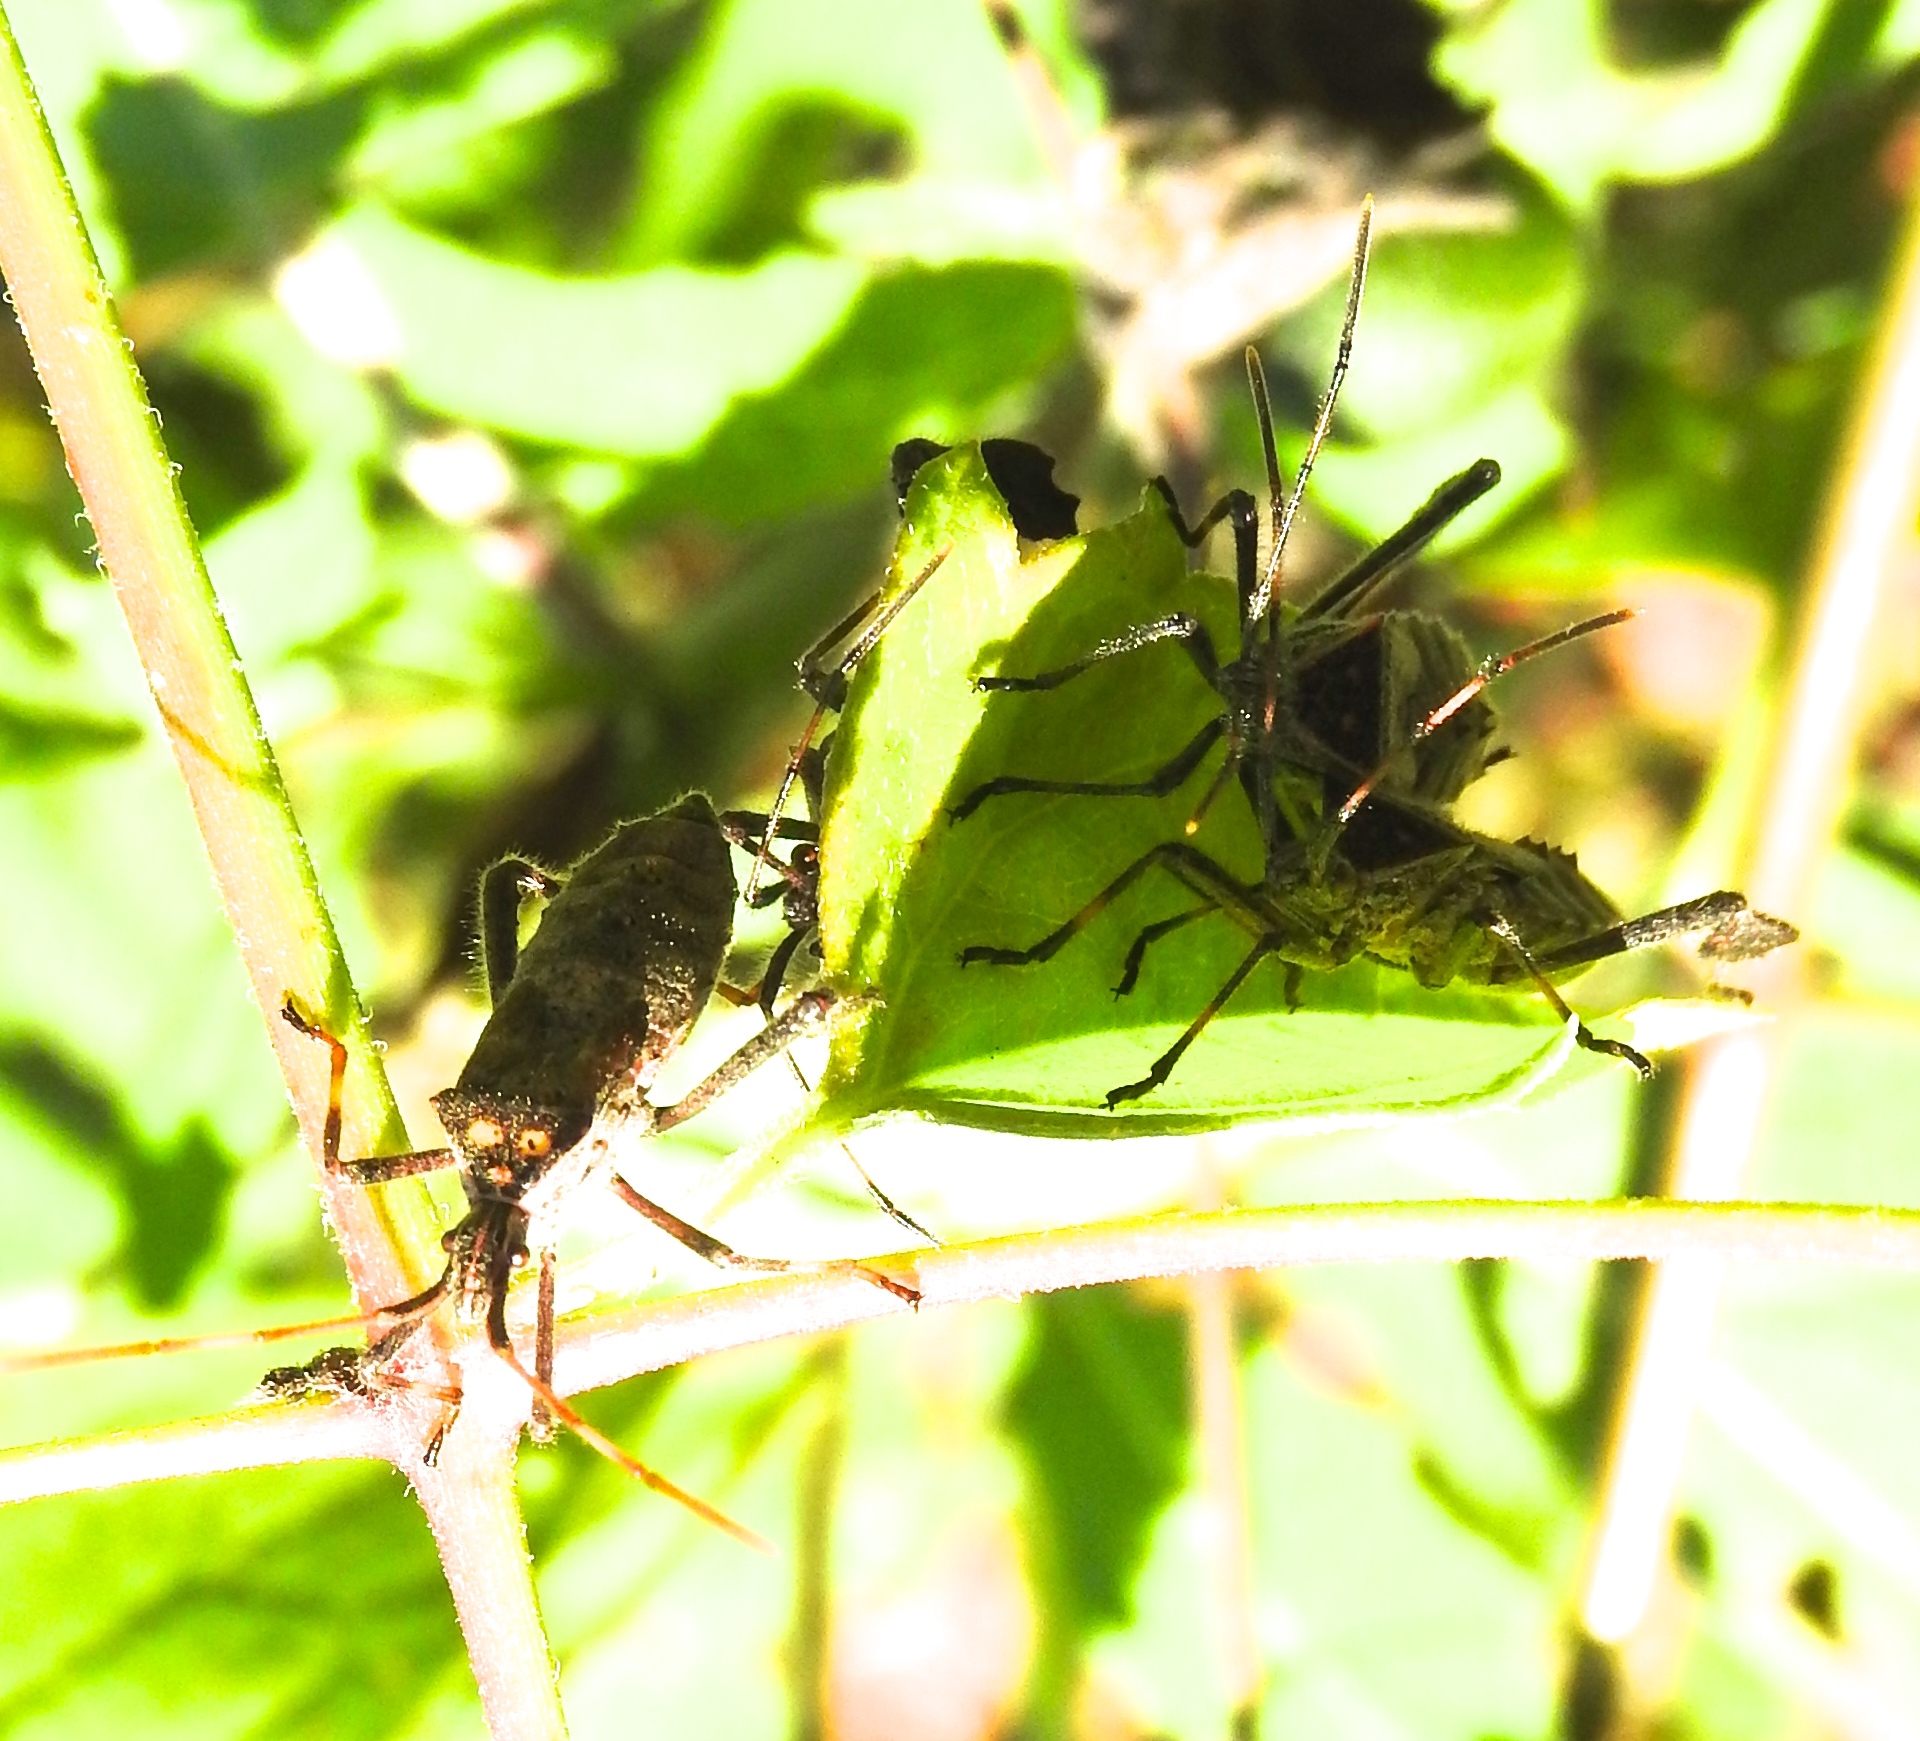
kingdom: Animalia
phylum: Arthropoda
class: Insecta
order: Hemiptera
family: Coreidae
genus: Leptoglossus
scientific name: Leptoglossus zonatus
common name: Large-legged bug
